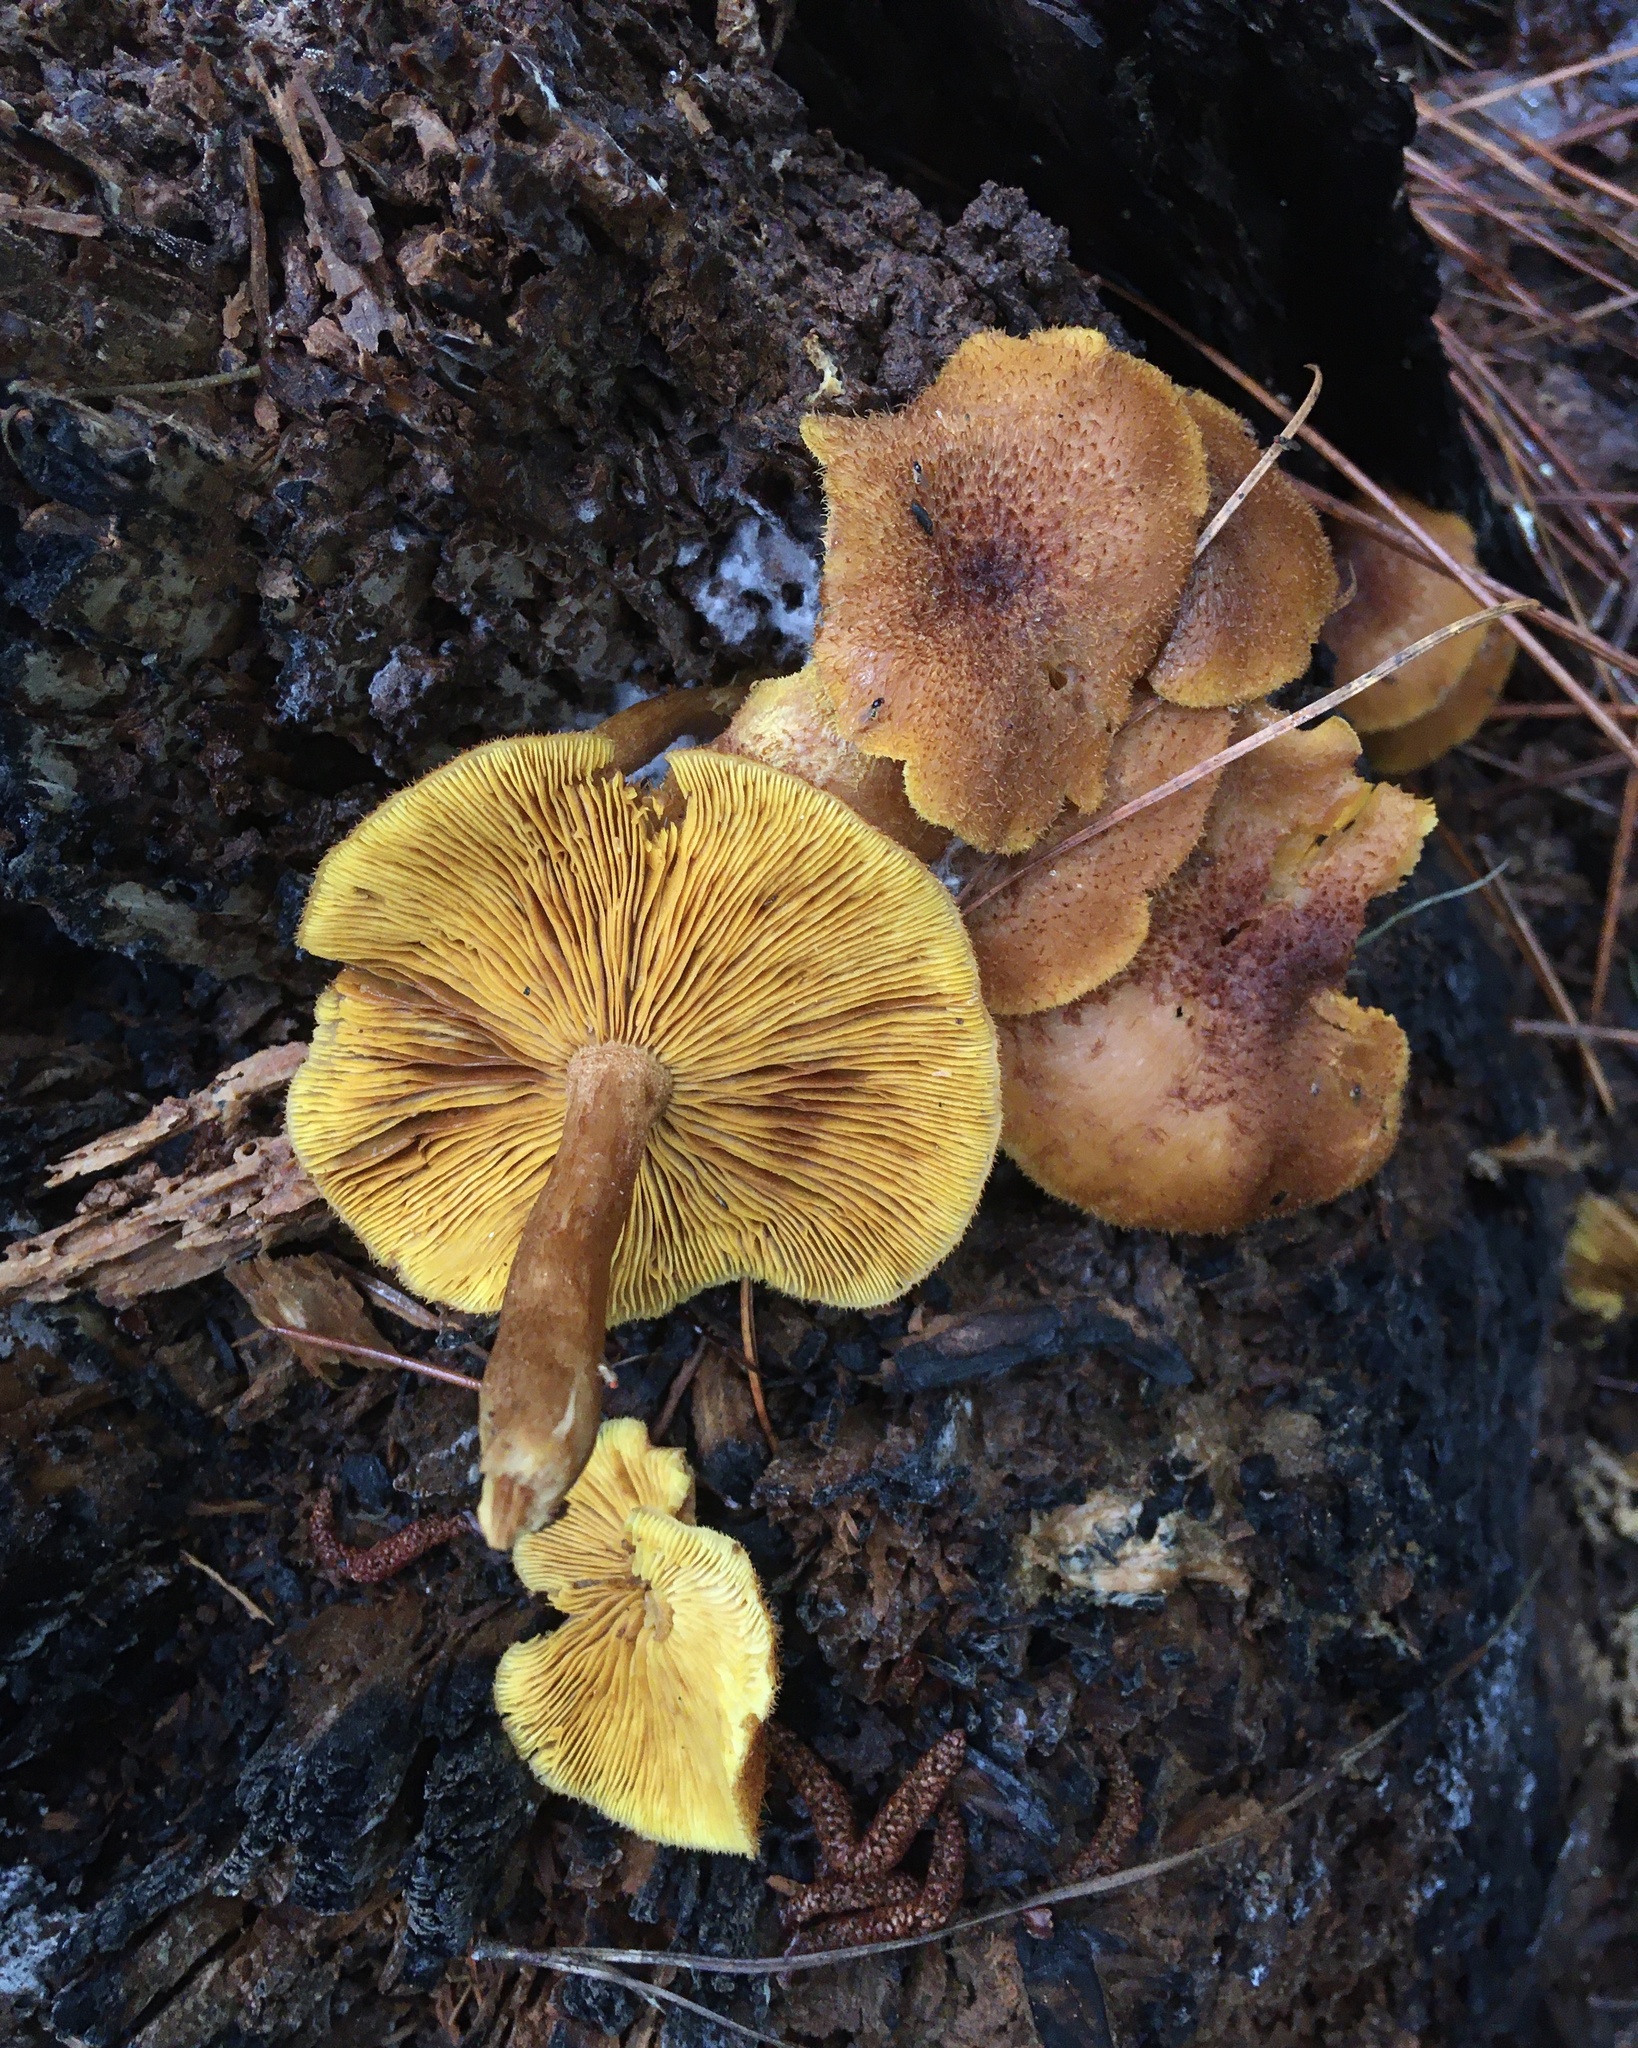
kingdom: Fungi
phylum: Basidiomycota
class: Agaricomycetes
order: Agaricales
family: Hymenogastraceae
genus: Gymnopilus
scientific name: Gymnopilus palmicola
